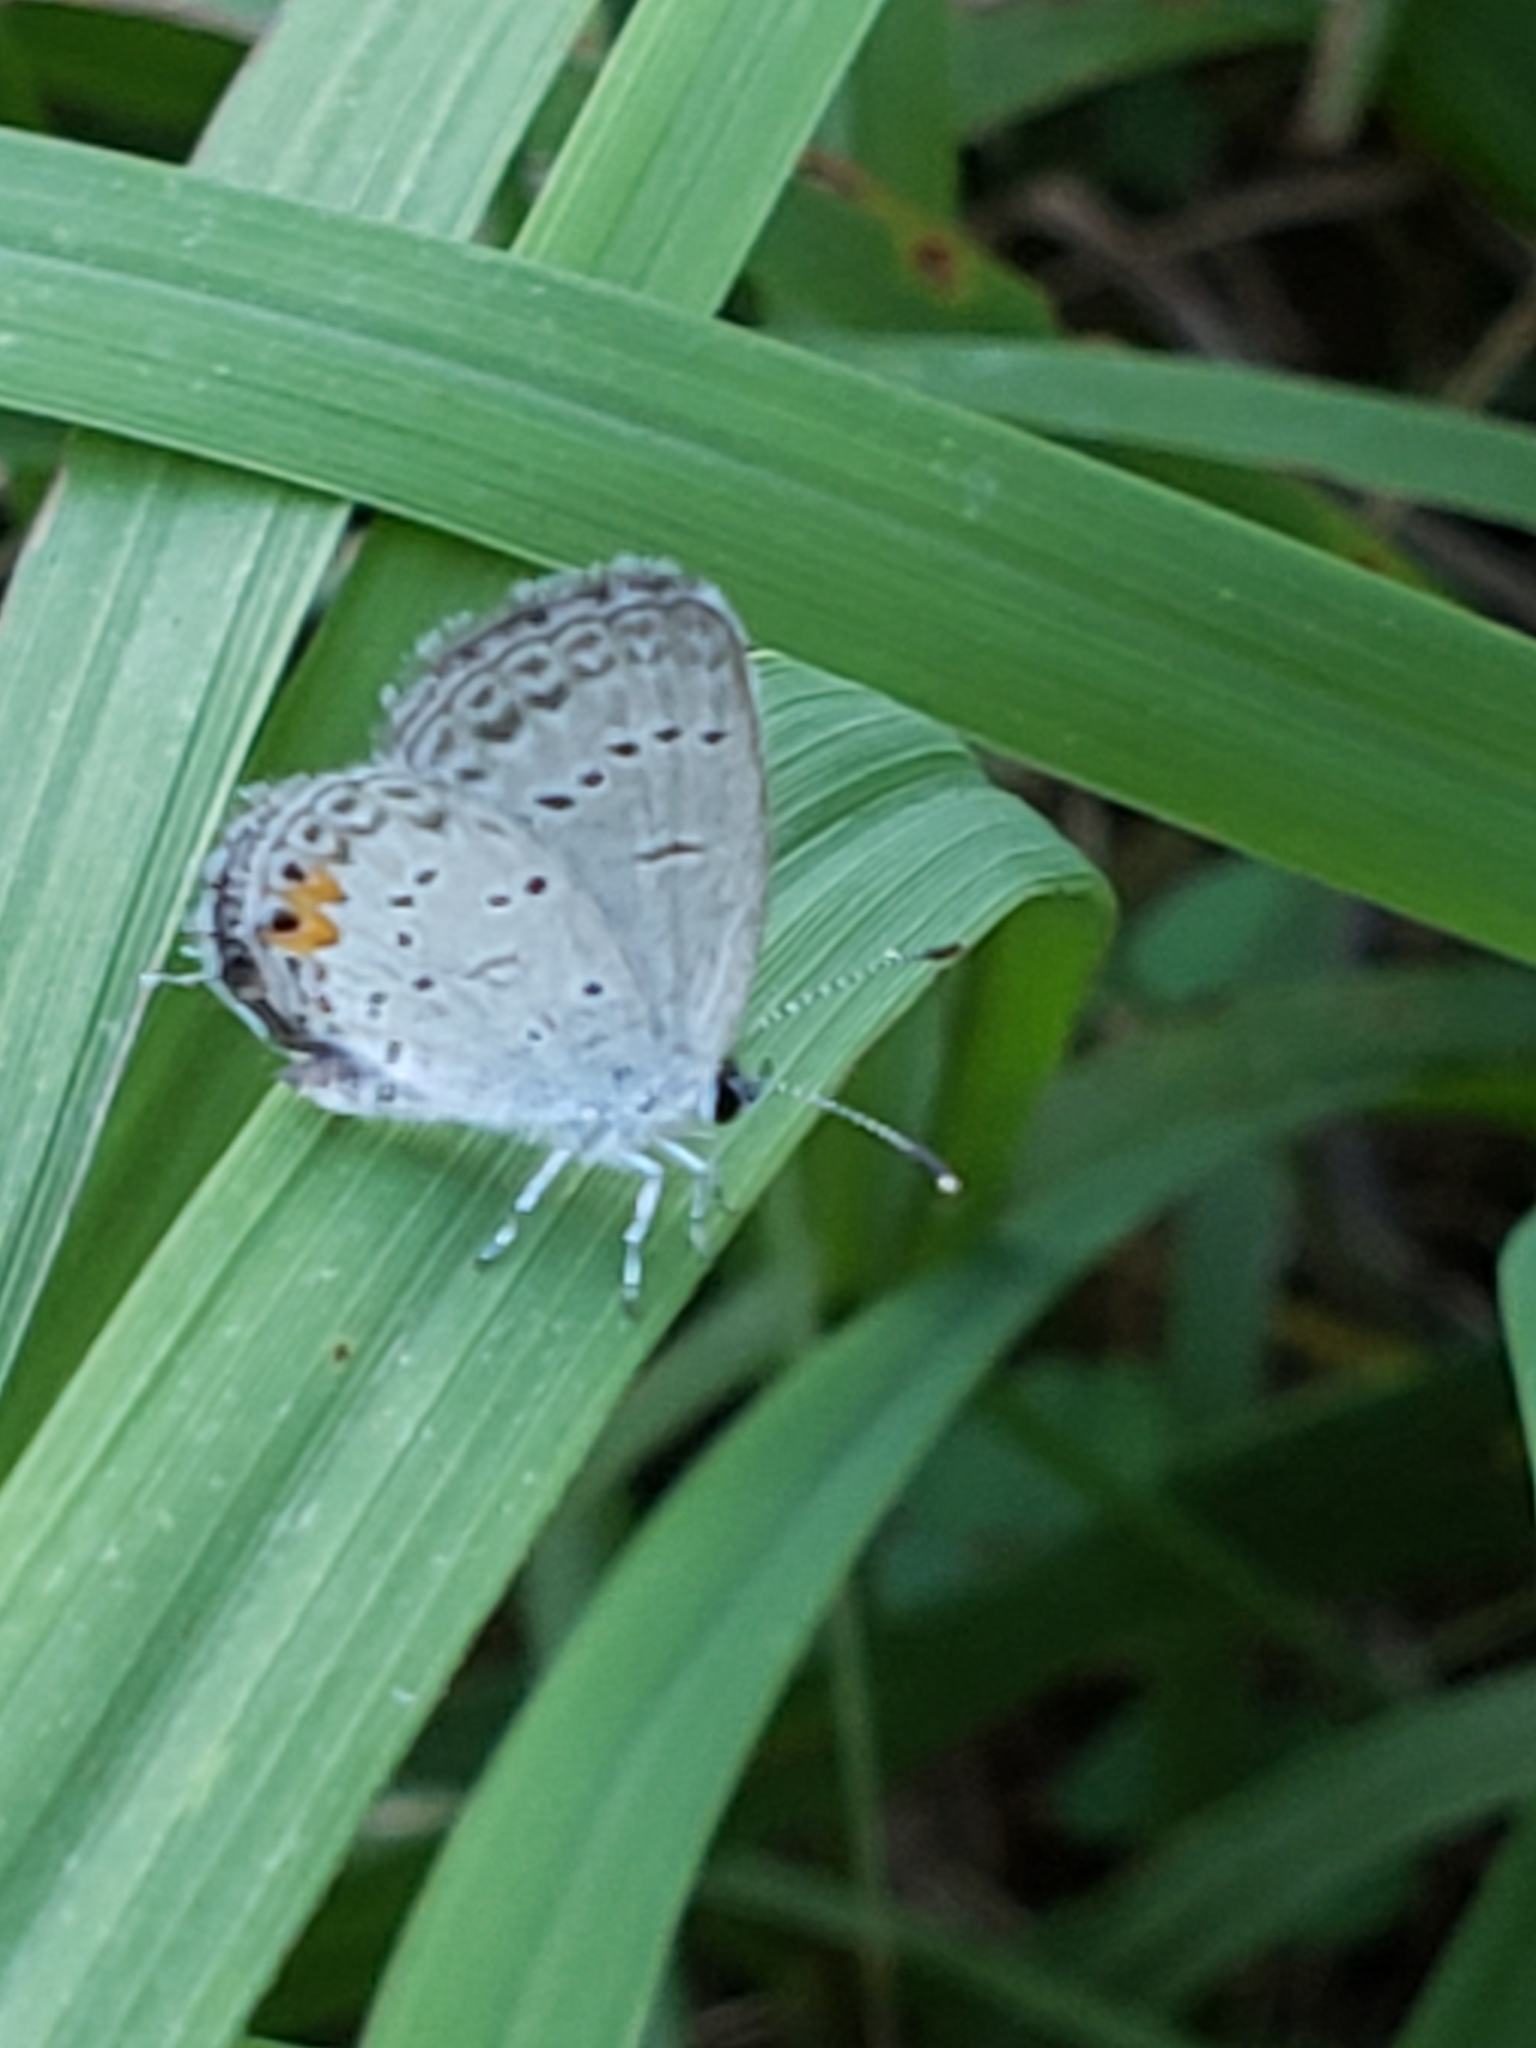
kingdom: Animalia
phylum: Arthropoda
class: Insecta
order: Lepidoptera
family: Lycaenidae
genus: Elkalyce
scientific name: Elkalyce comyntas
